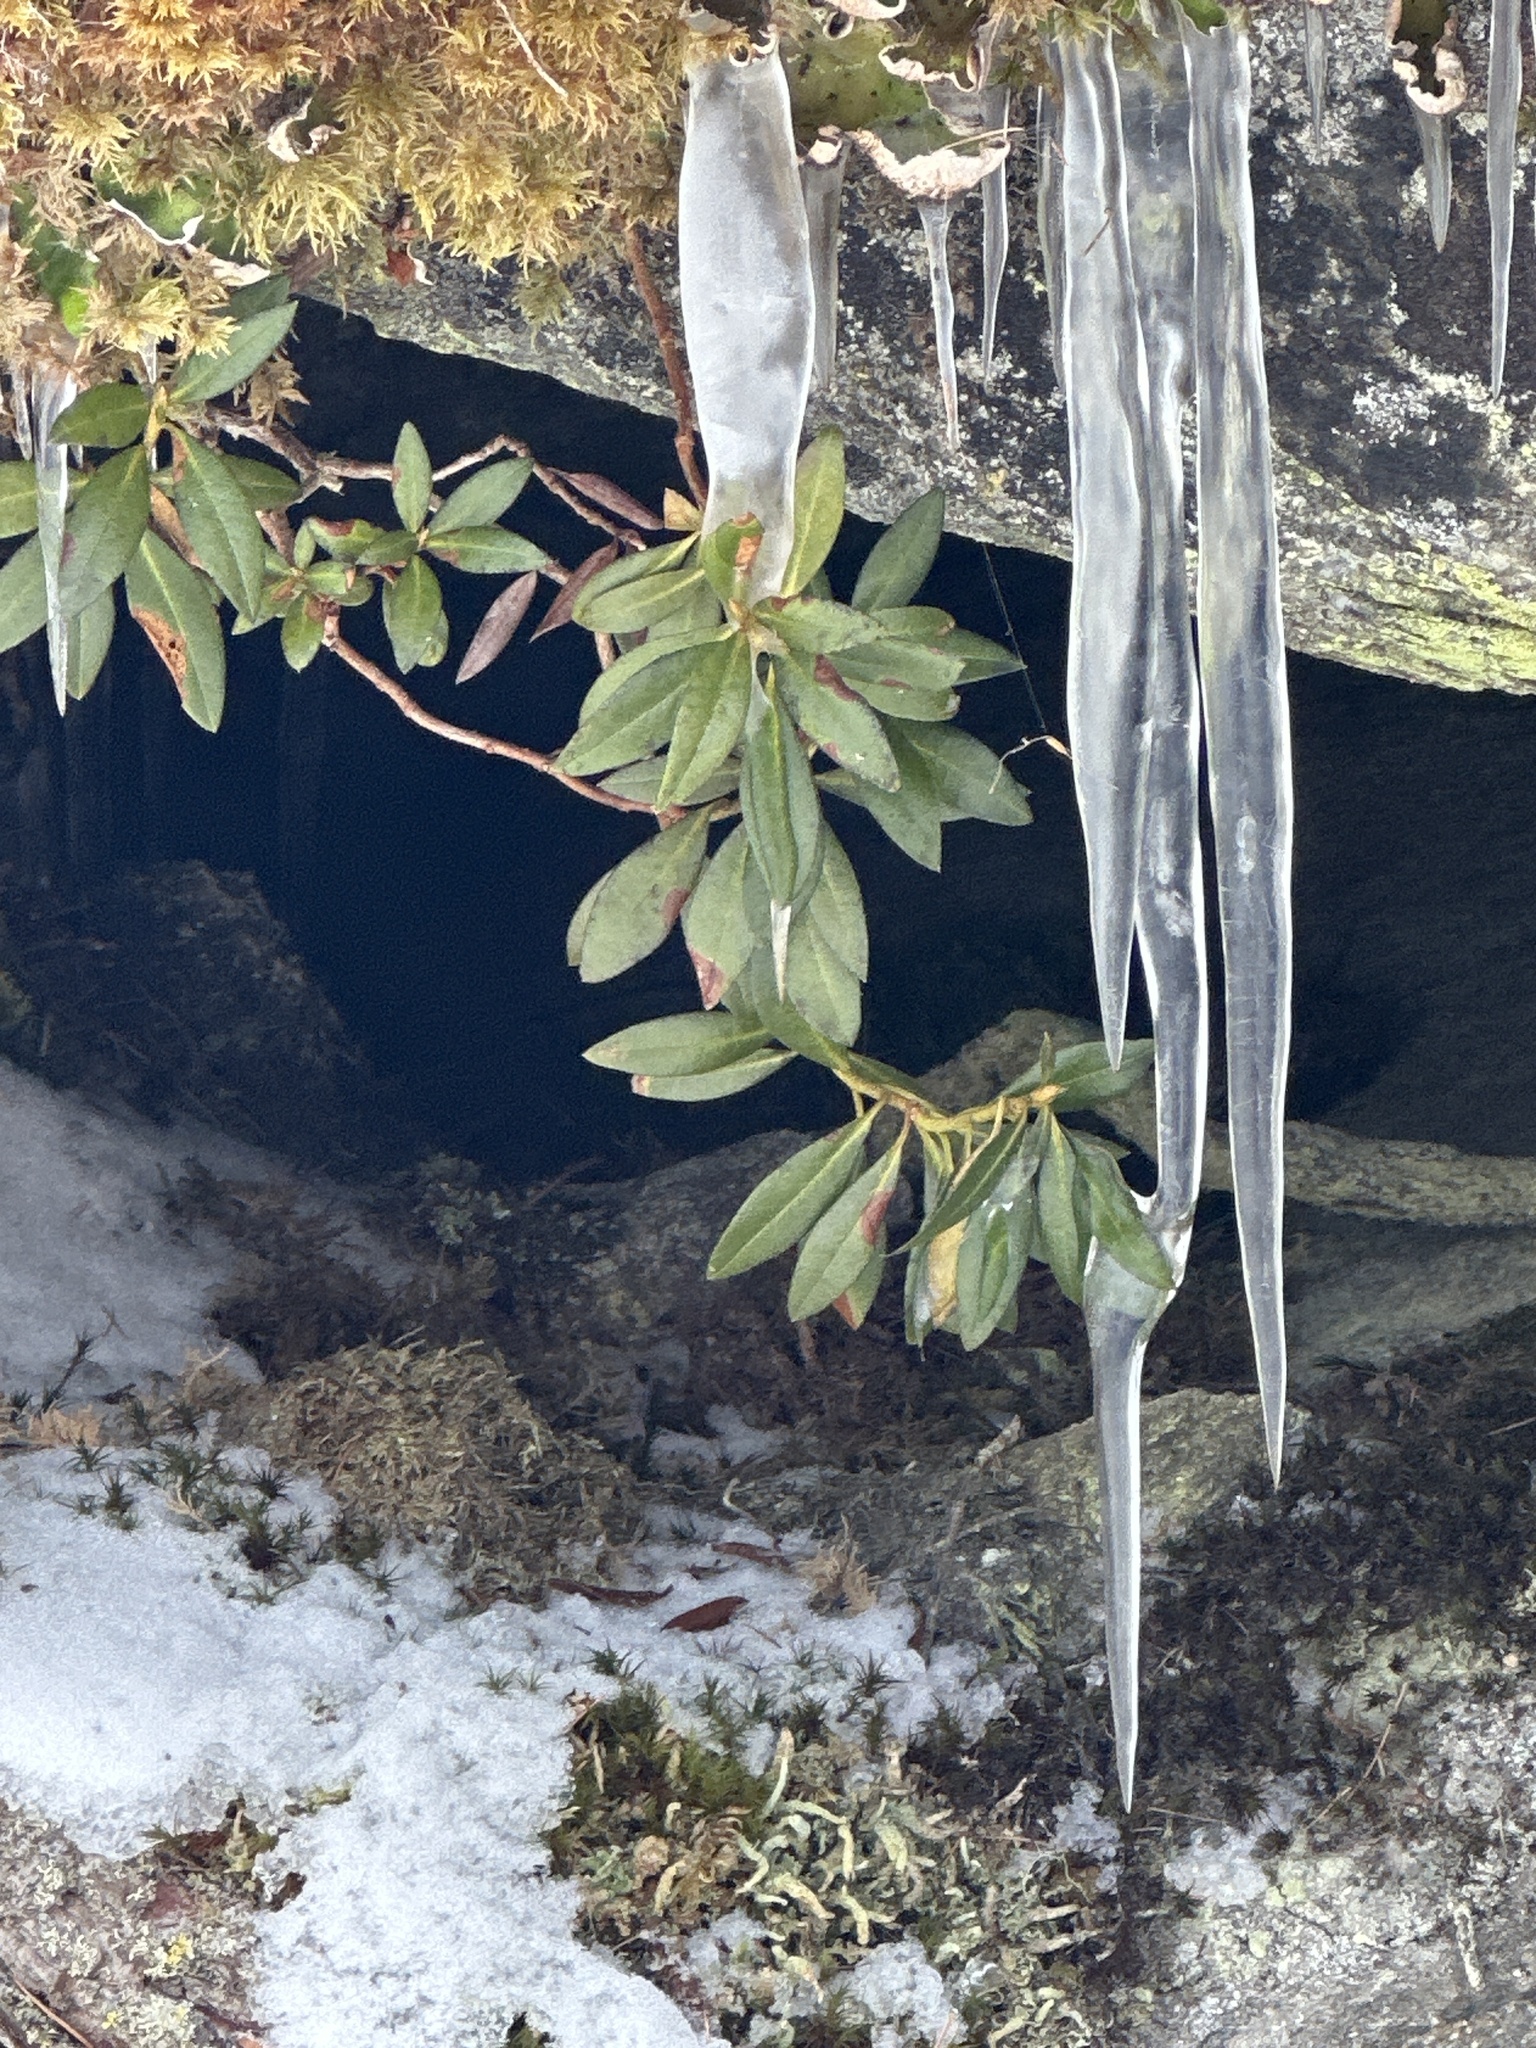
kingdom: Plantae
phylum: Tracheophyta
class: Magnoliopsida
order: Ericales
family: Ericaceae
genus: Rhododendron
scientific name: Rhododendron ferrugineum
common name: Alpenrose
